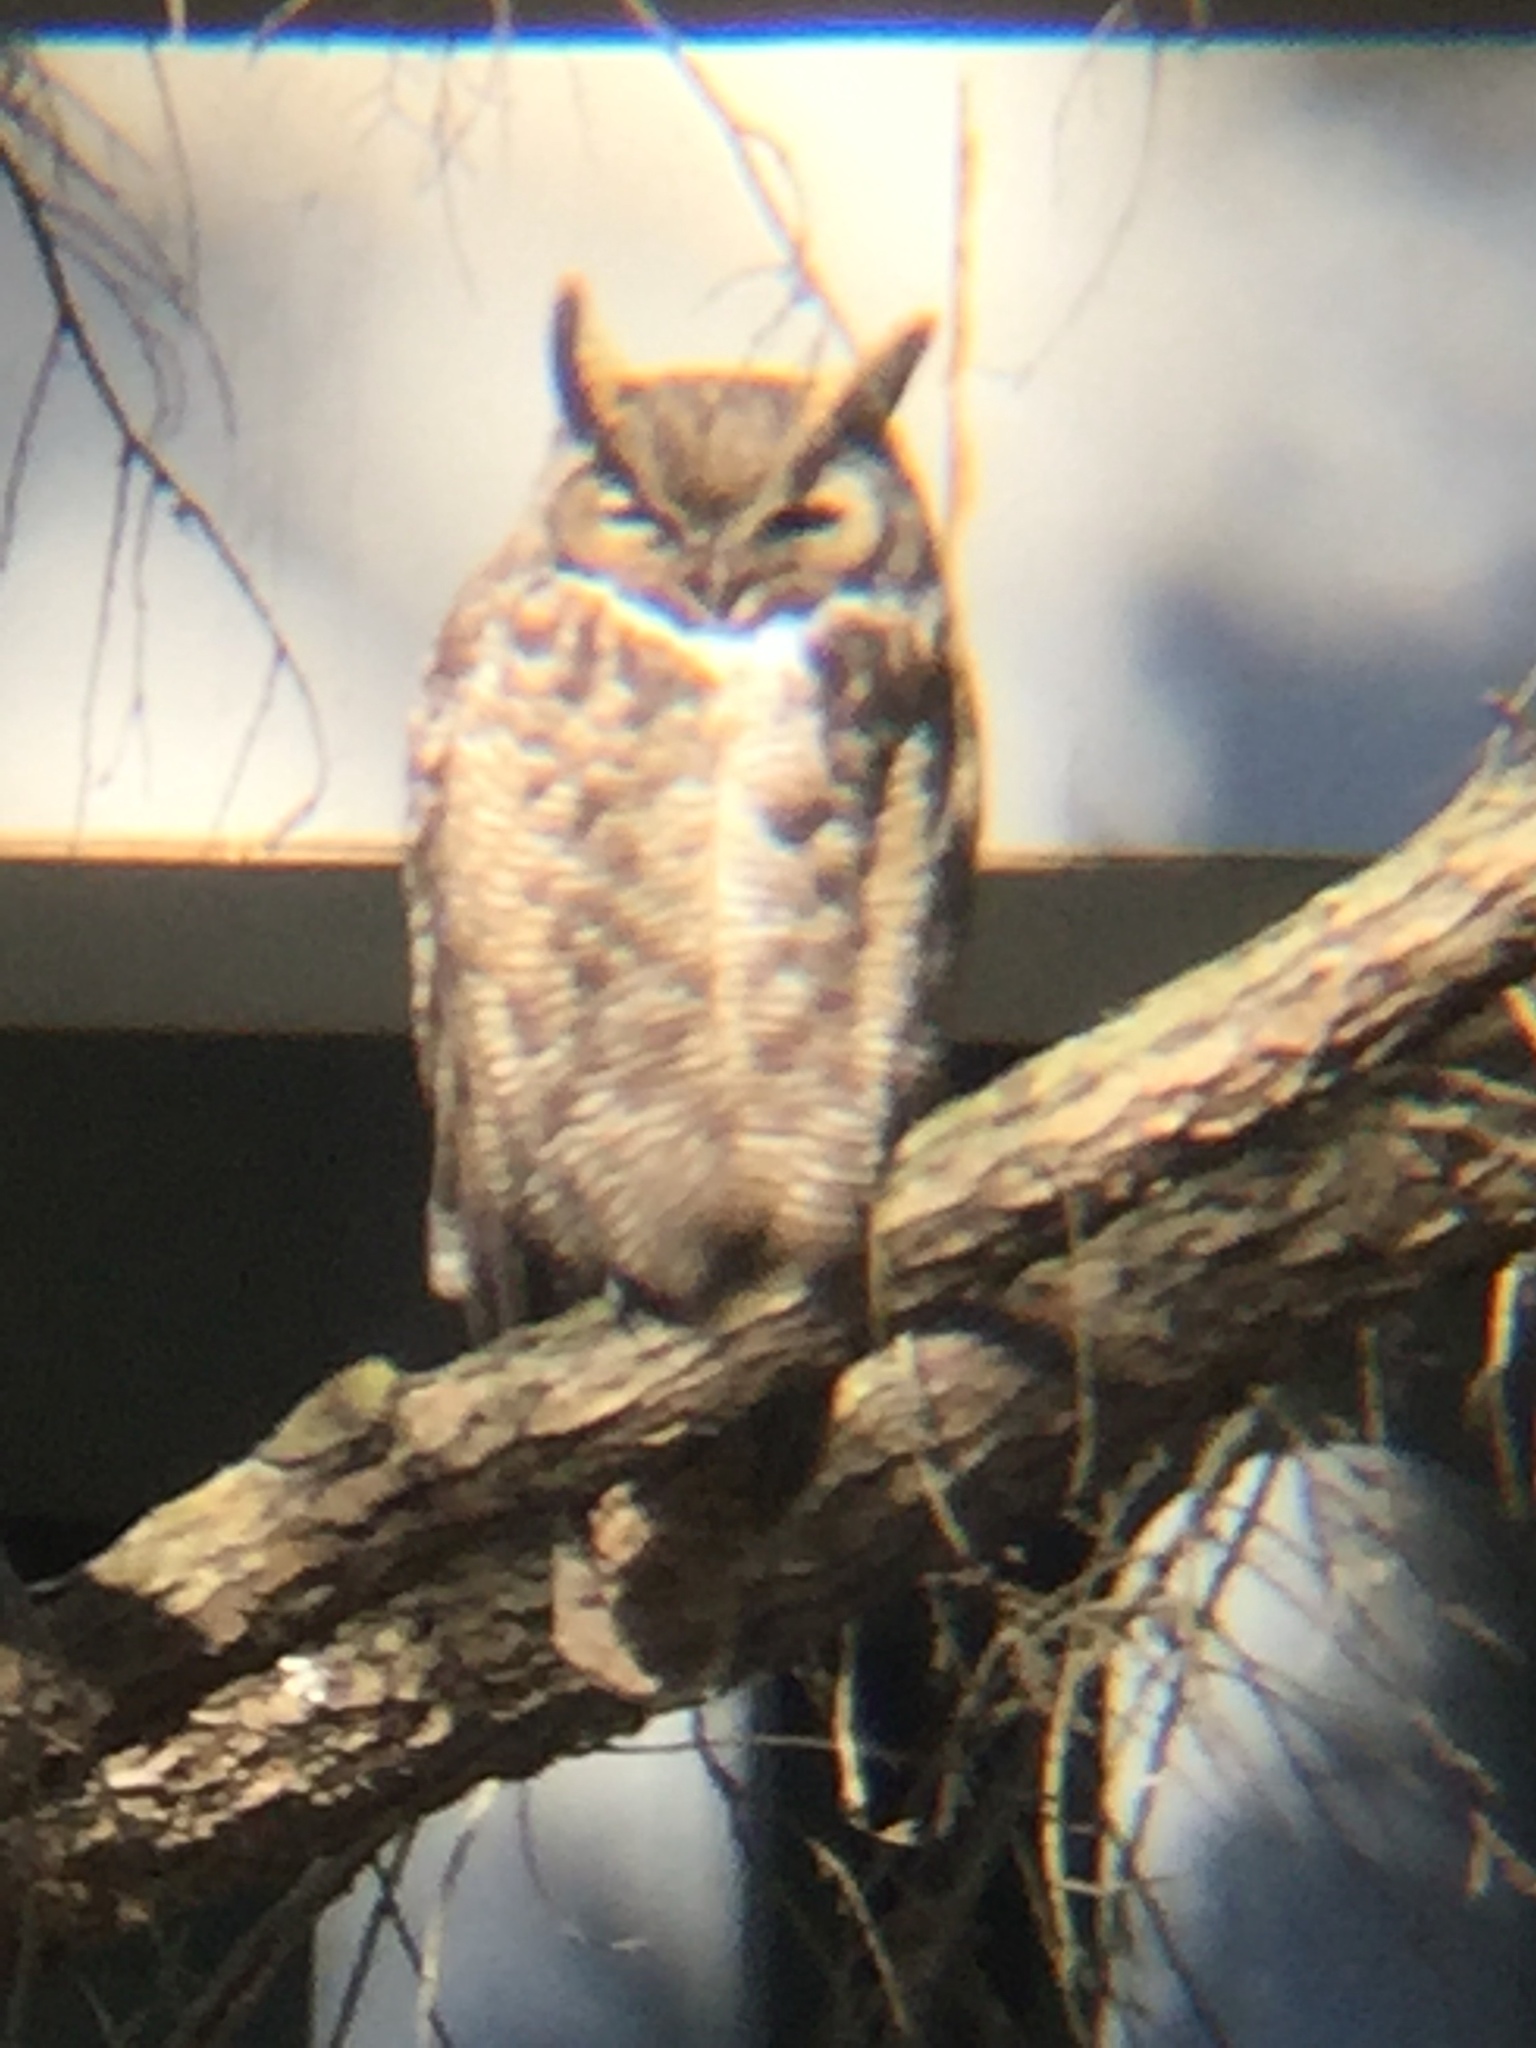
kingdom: Animalia
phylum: Chordata
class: Aves
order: Strigiformes
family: Strigidae
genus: Bubo
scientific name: Bubo virginianus
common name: Great horned owl
